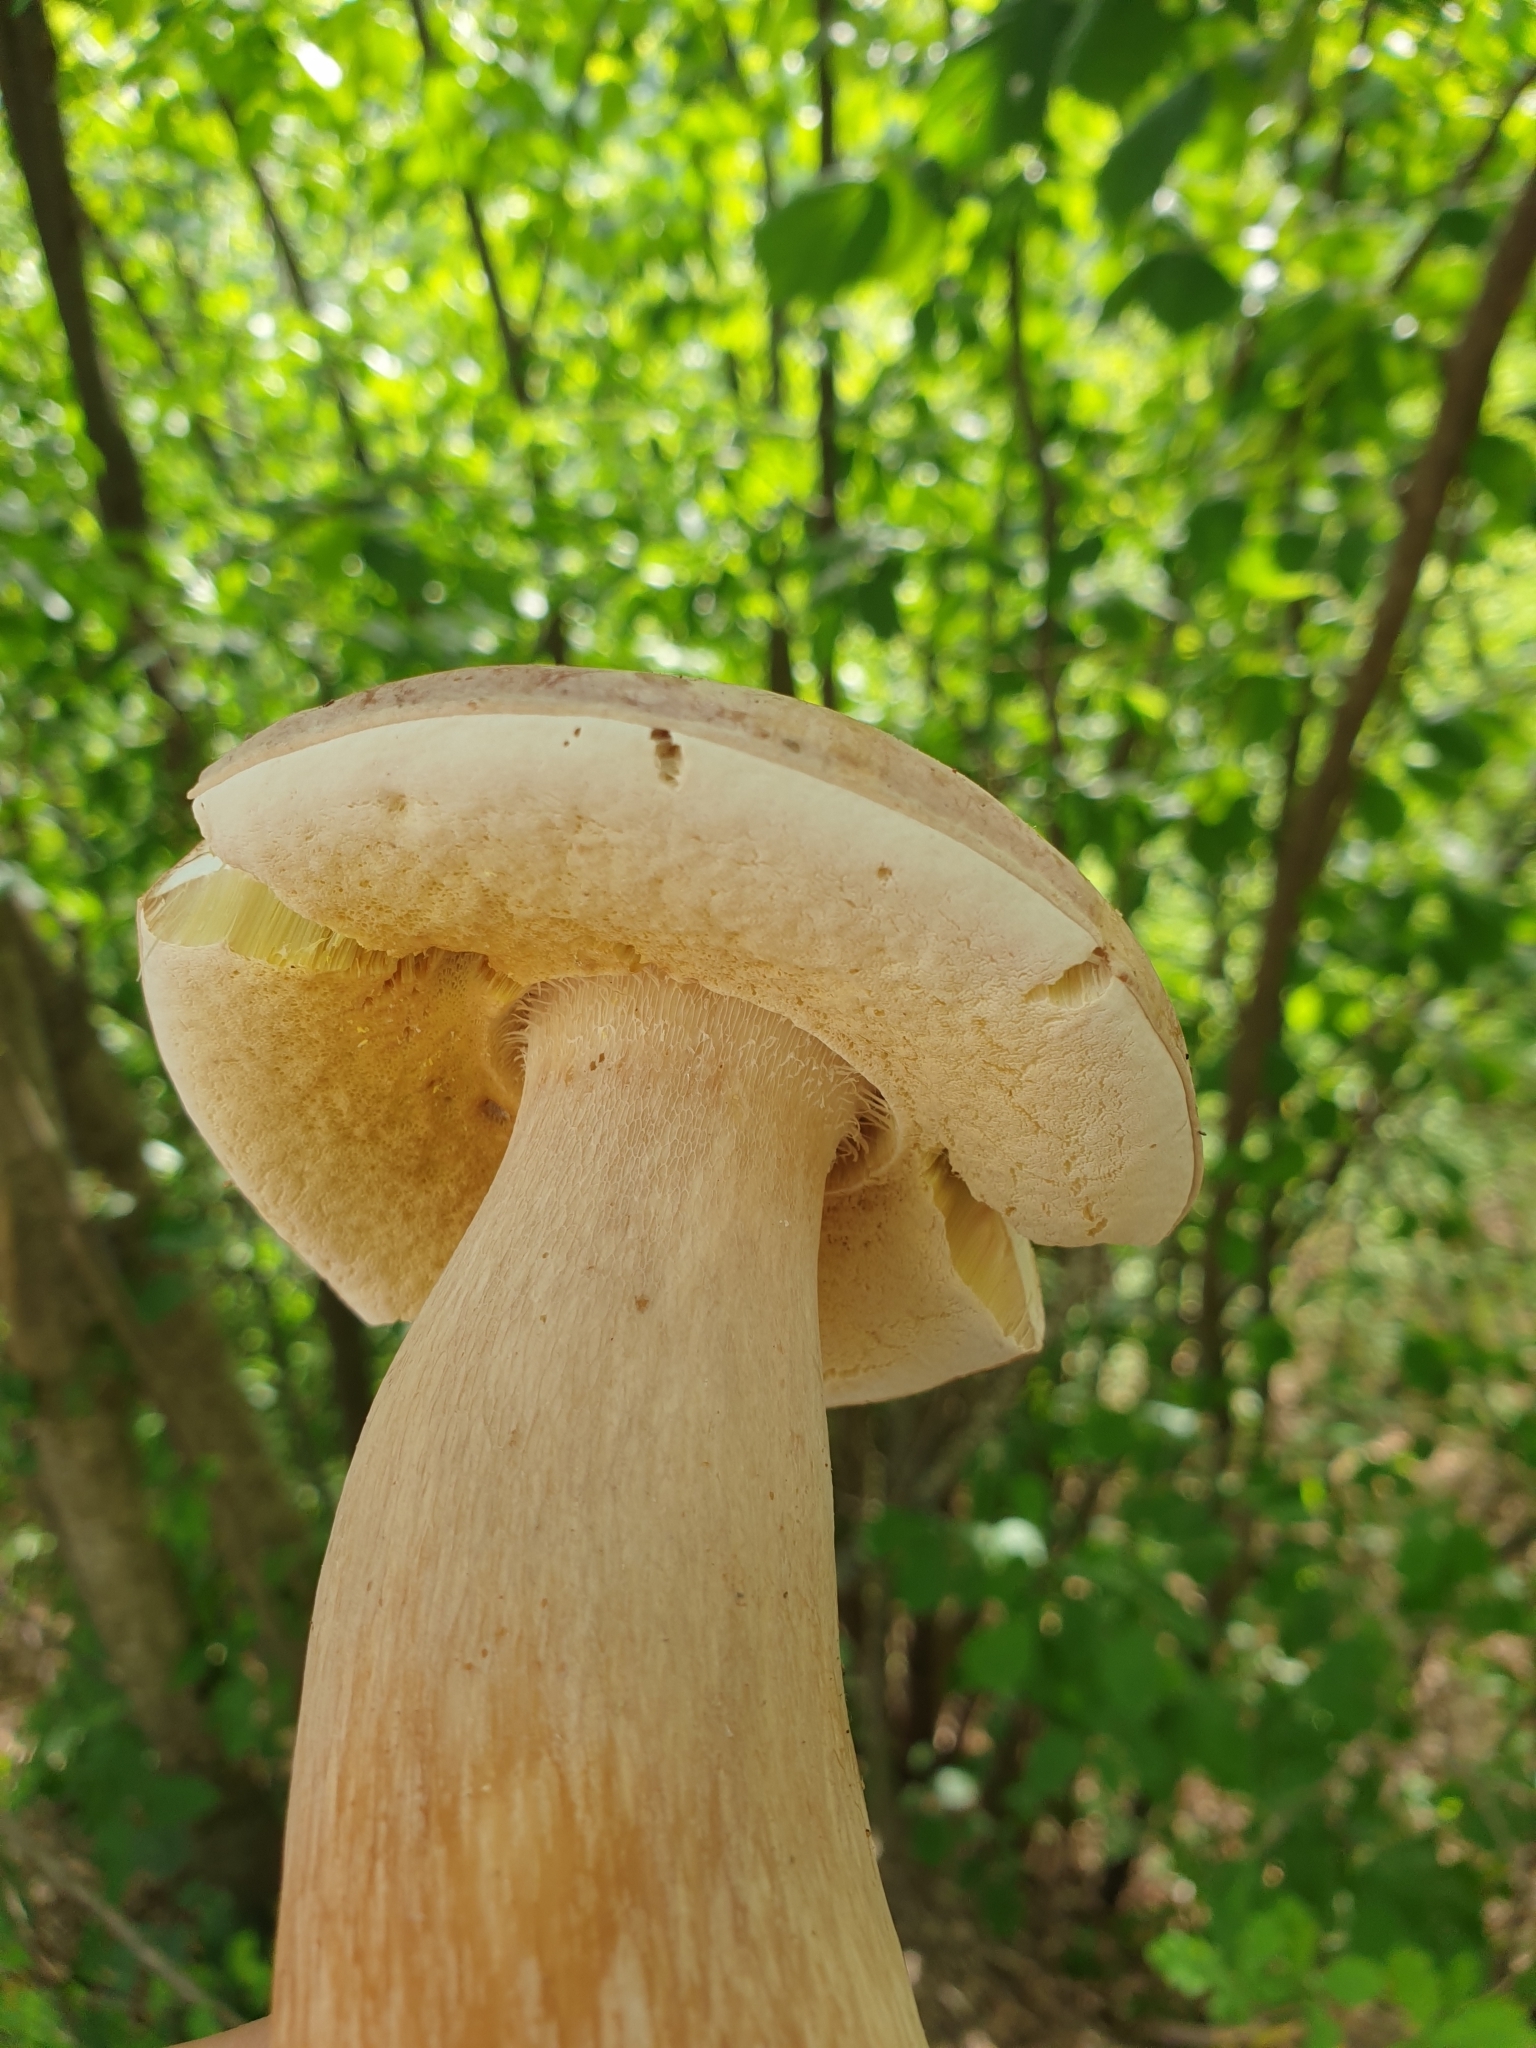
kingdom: Fungi
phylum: Basidiomycota
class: Agaricomycetes
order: Boletales
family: Boletaceae
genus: Boletus
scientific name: Boletus reticulatus
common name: Summer bolete
